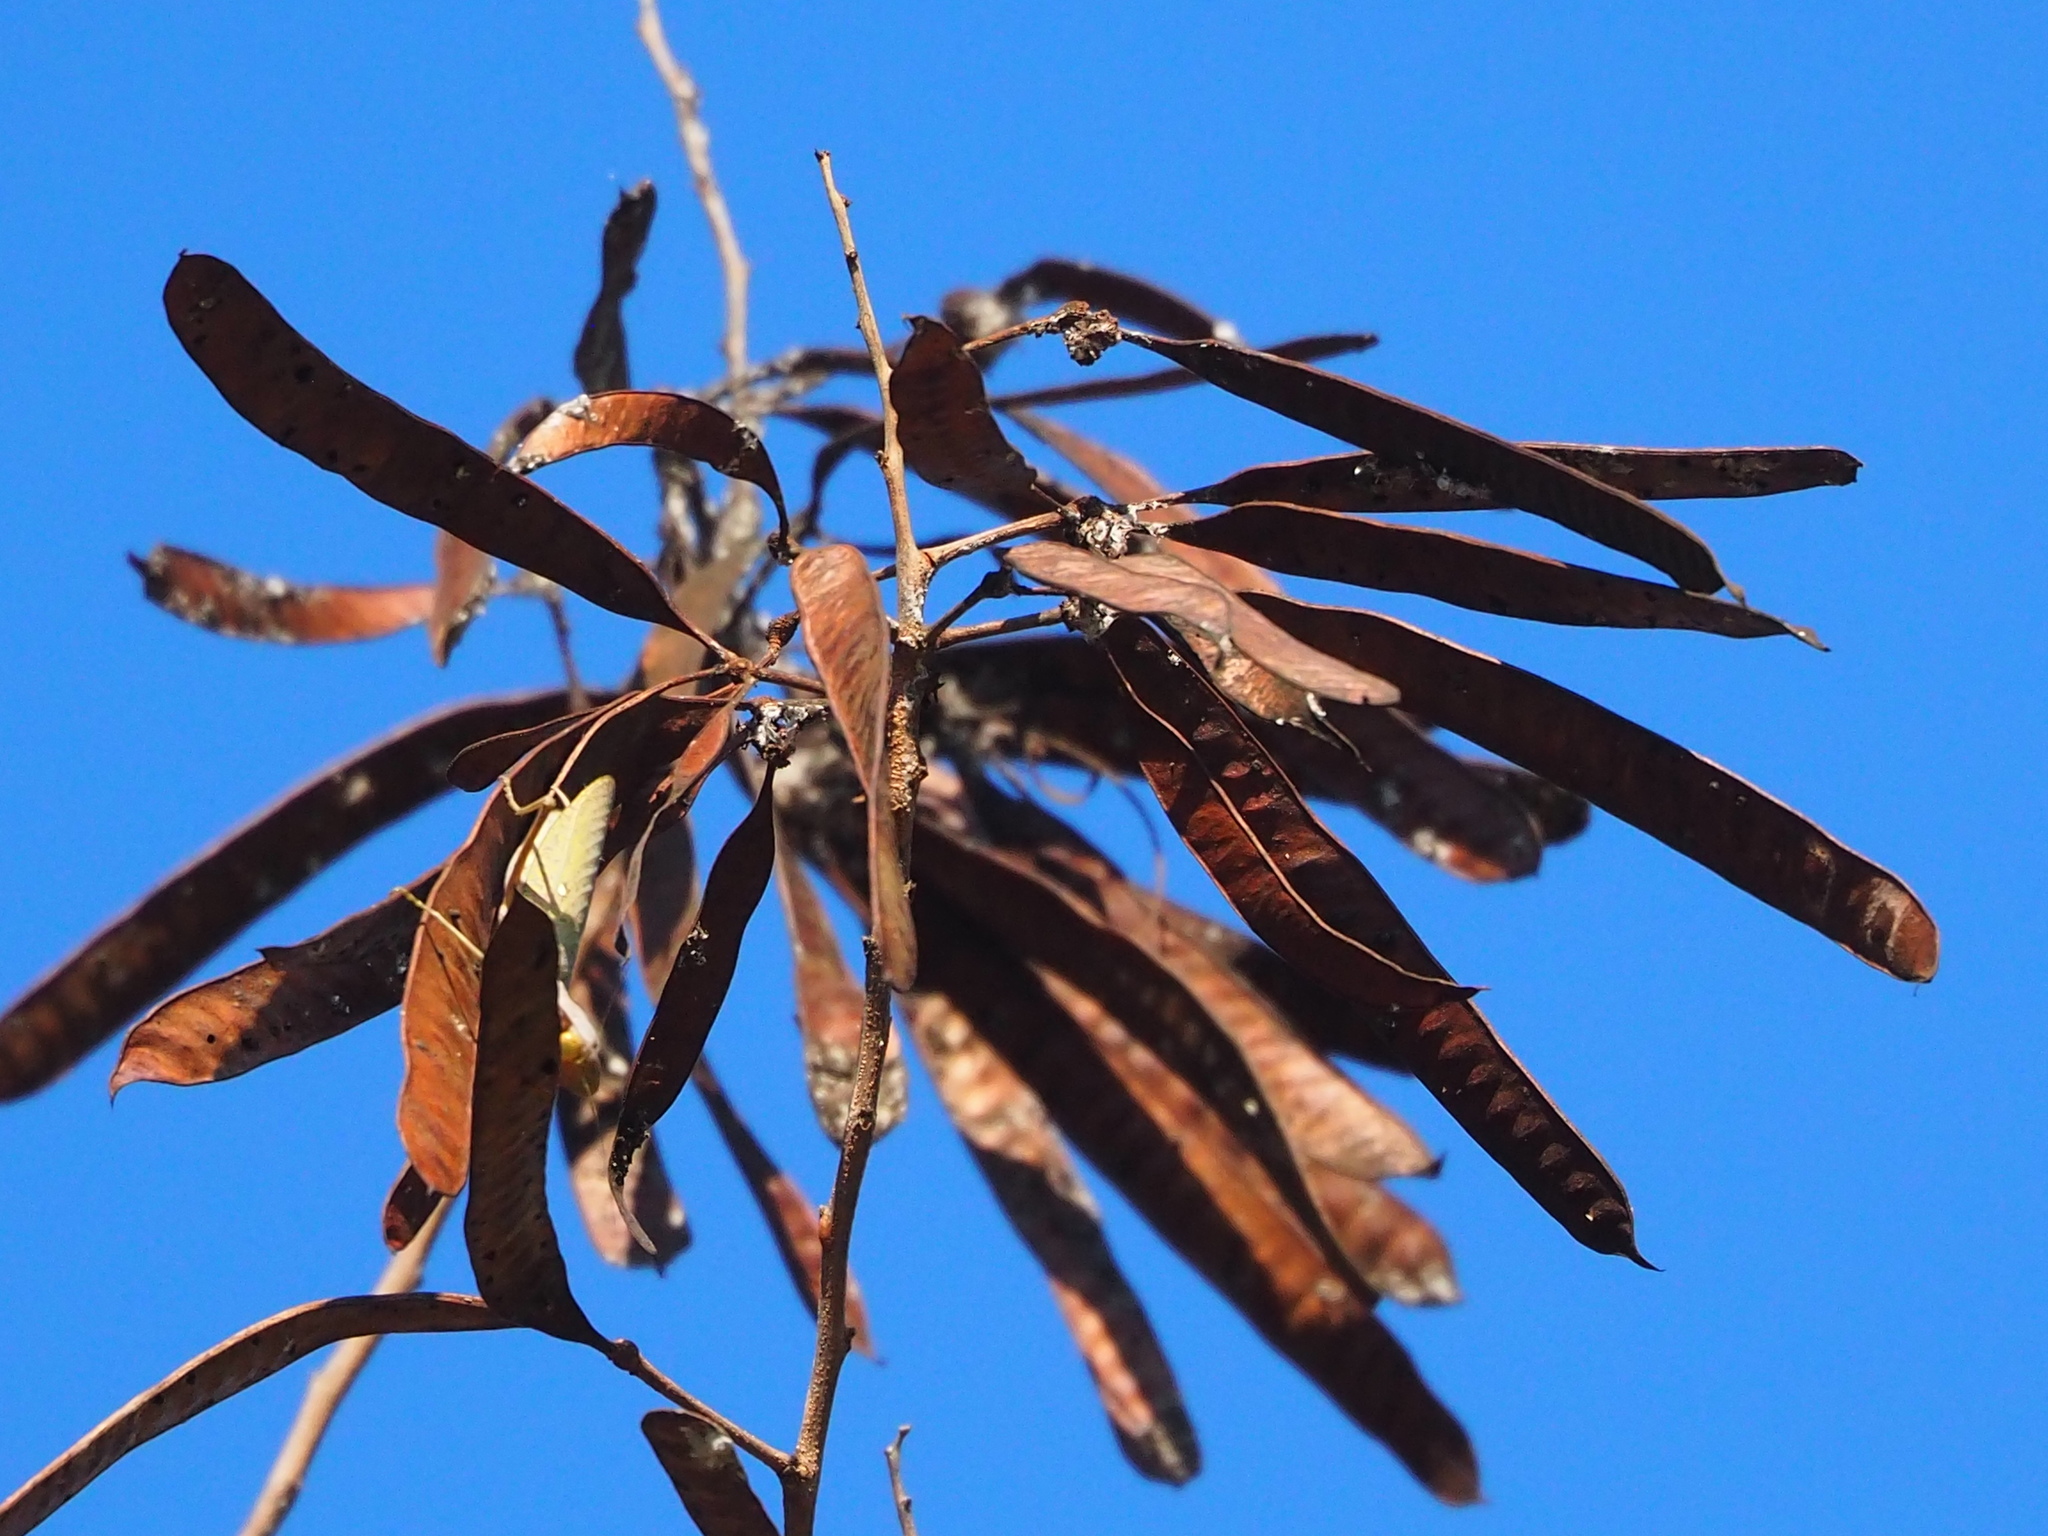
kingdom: Plantae
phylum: Tracheophyta
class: Magnoliopsida
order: Fabales
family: Fabaceae
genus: Leucaena
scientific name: Leucaena leucocephala
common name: White leadtree
